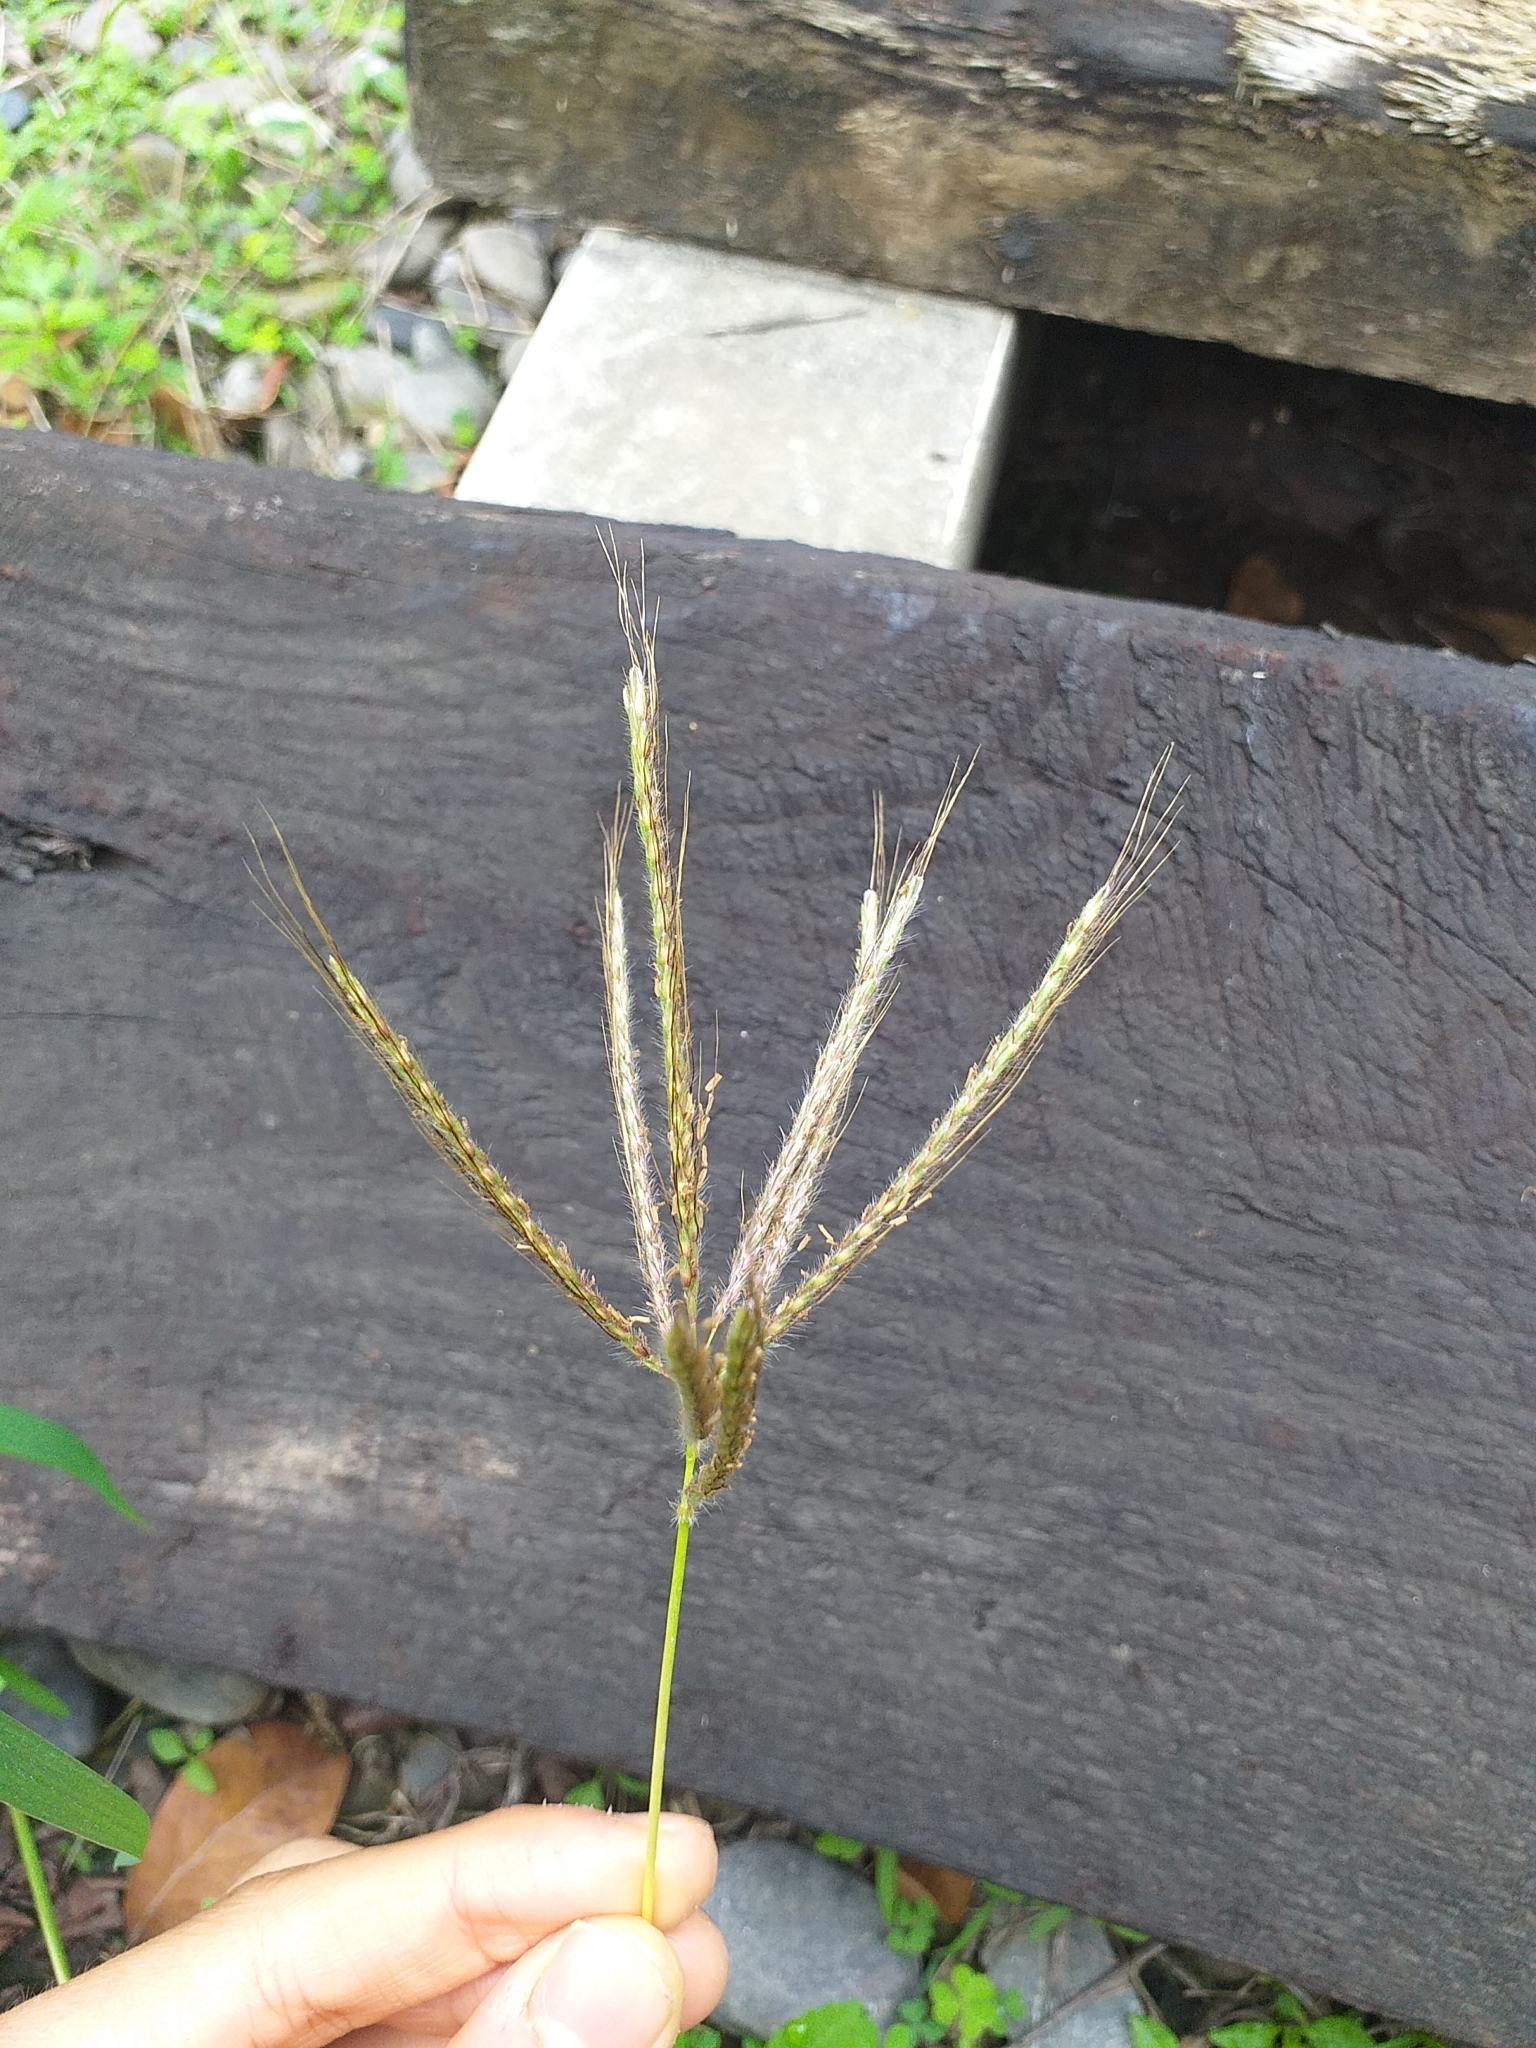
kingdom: Plantae
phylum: Tracheophyta
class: Liliopsida
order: Poales
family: Poaceae
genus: Dichanthium
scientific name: Dichanthium annulatum
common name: Kleberg's bluestem
